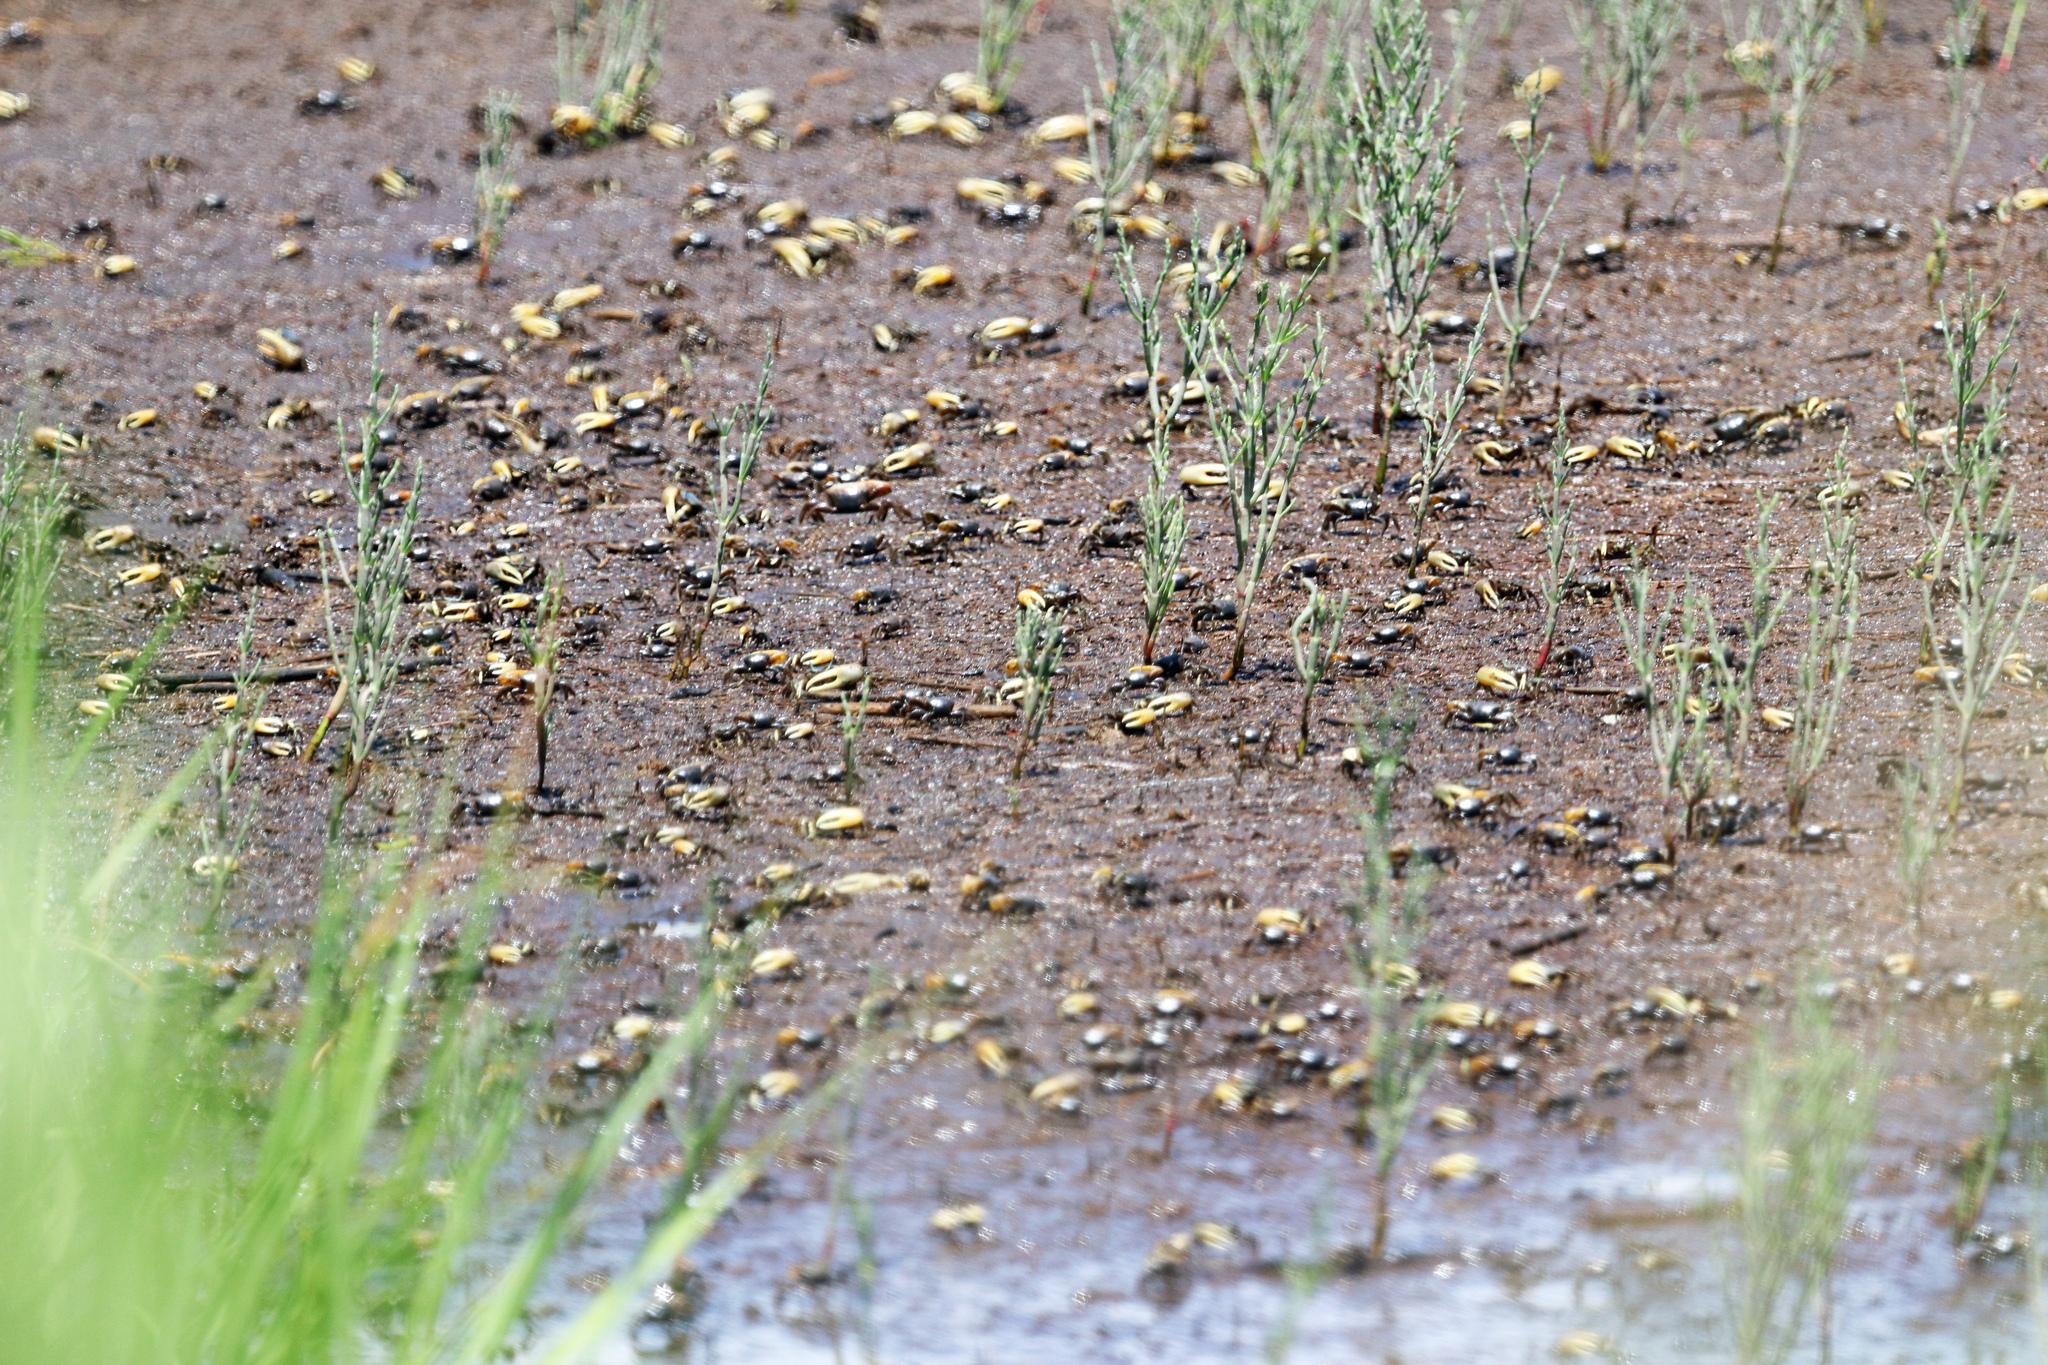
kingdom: Animalia
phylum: Arthropoda
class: Malacostraca
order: Decapoda
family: Ocypodidae
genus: Minuca
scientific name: Minuca pugnax
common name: Mud fiddler crab
